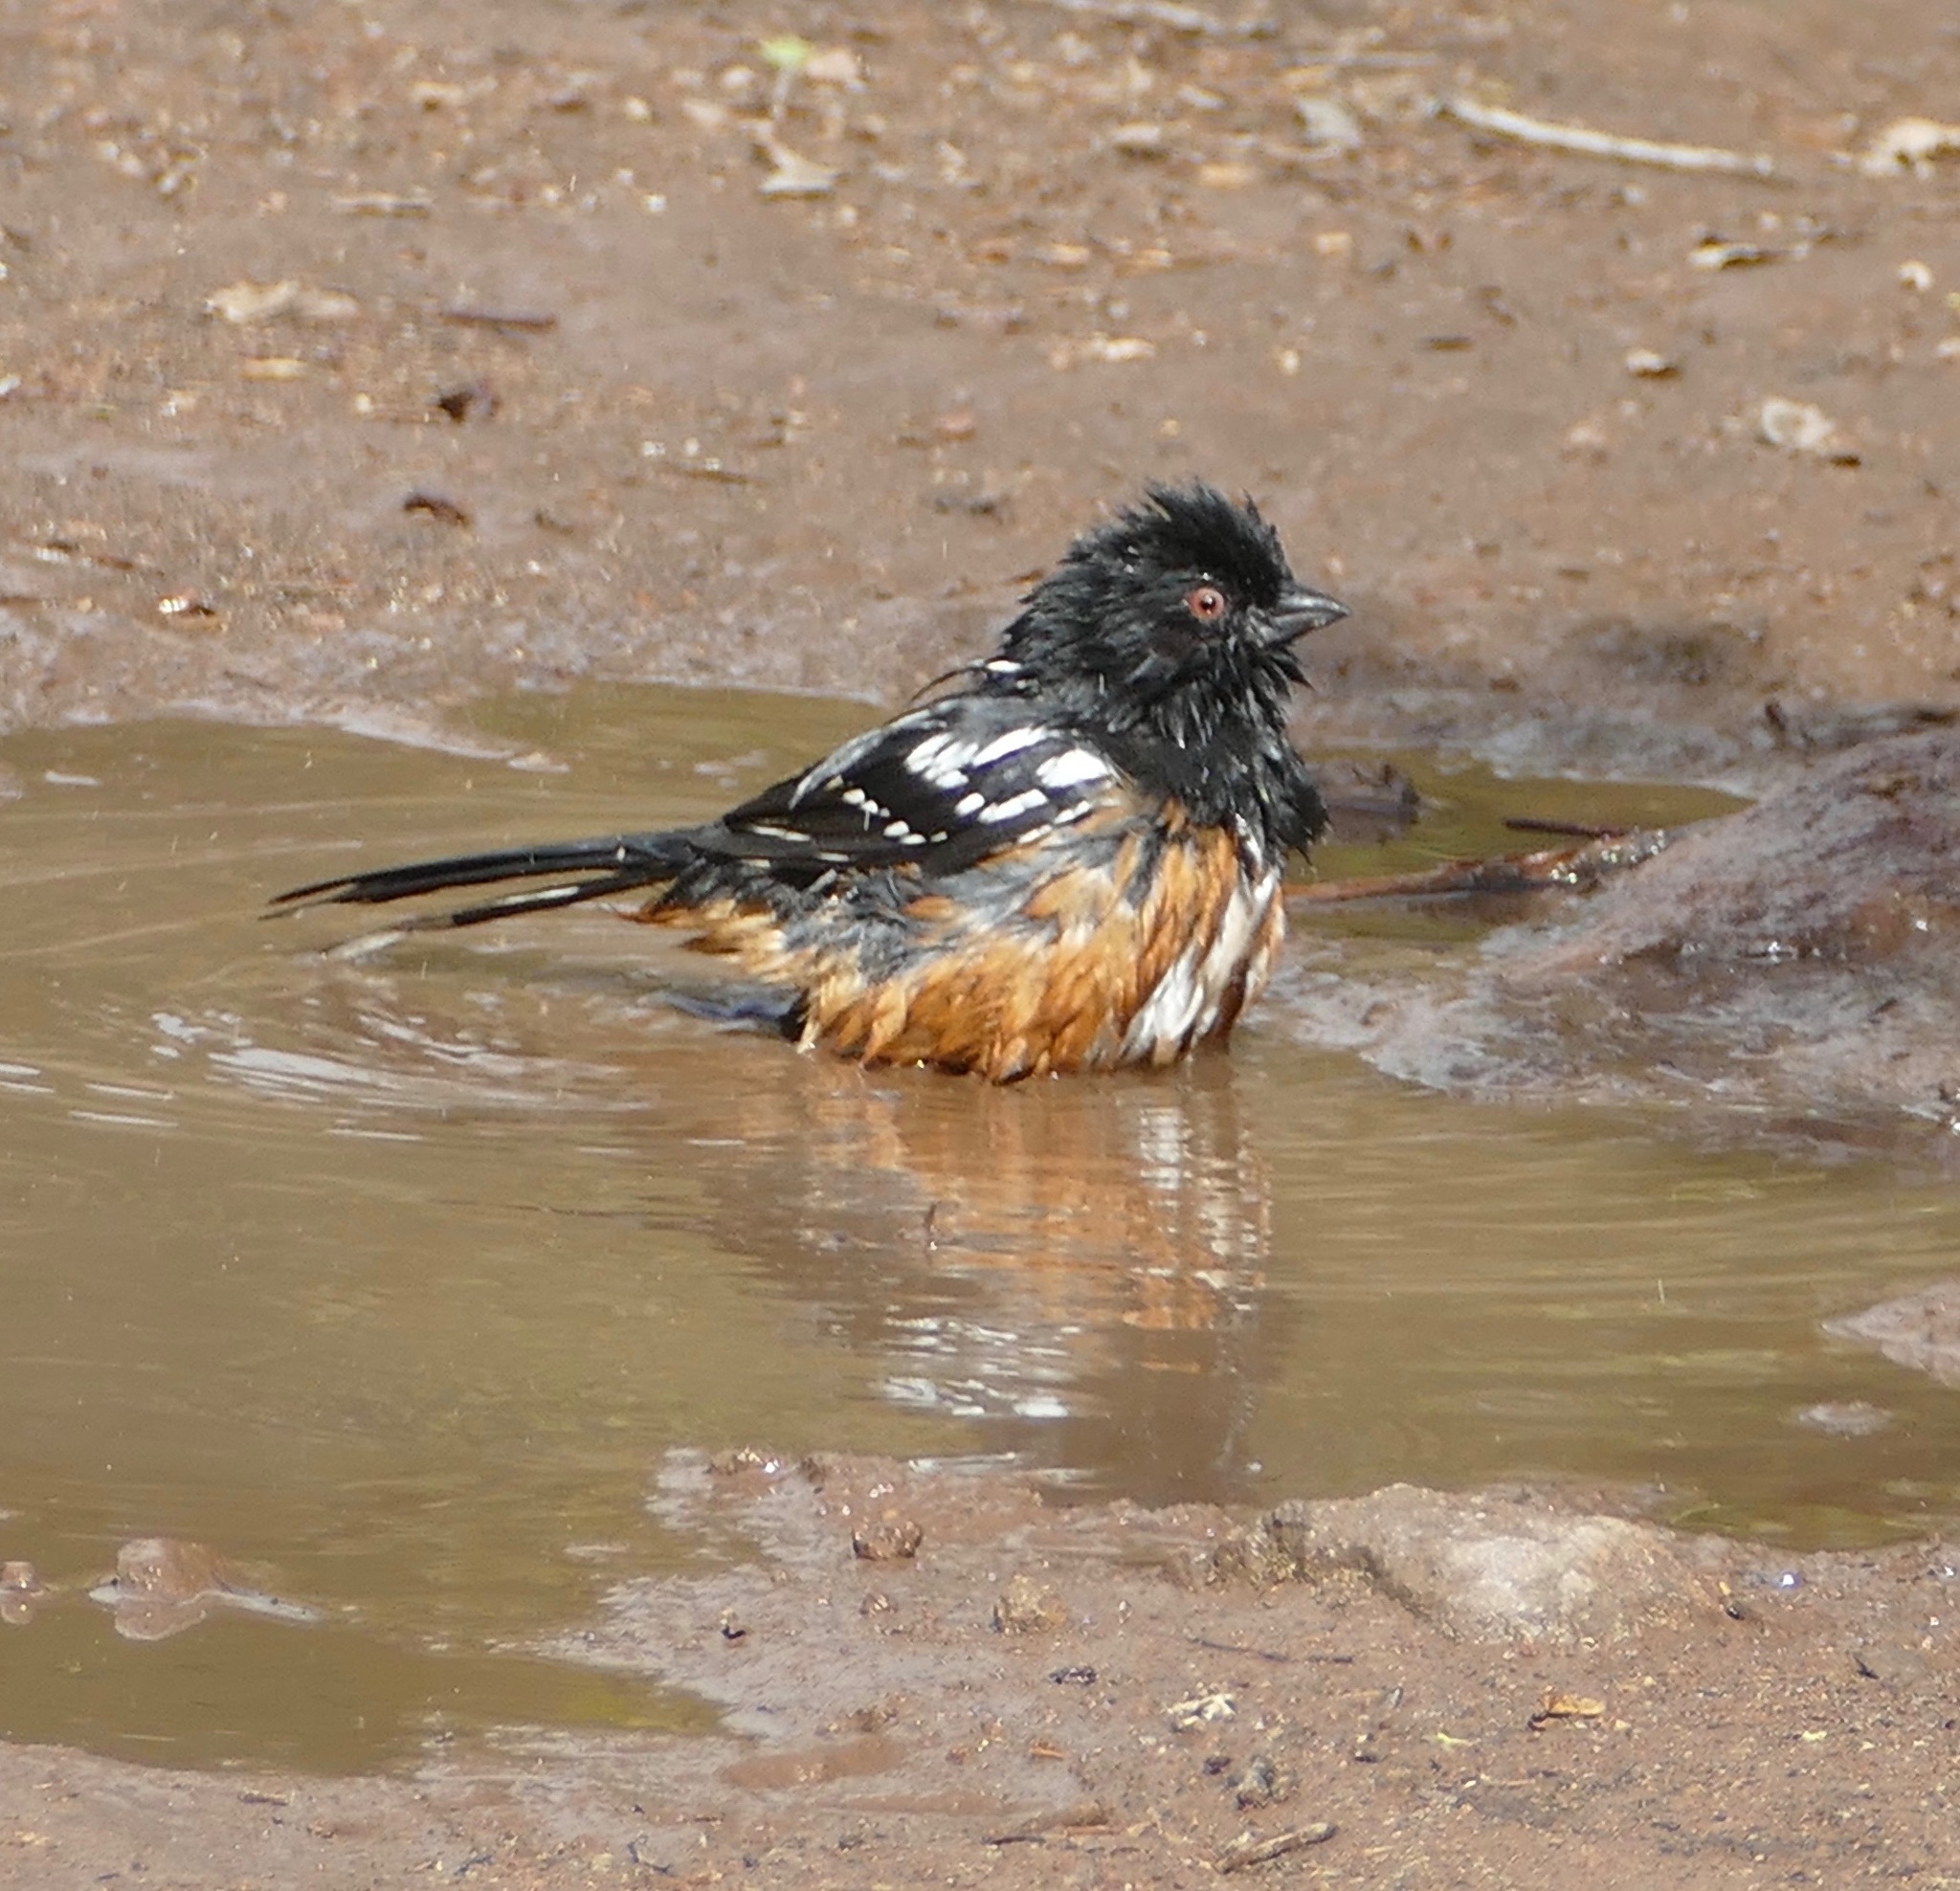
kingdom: Animalia
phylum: Chordata
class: Aves
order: Passeriformes
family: Passerellidae
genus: Pipilo
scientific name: Pipilo maculatus
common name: Spotted towhee
